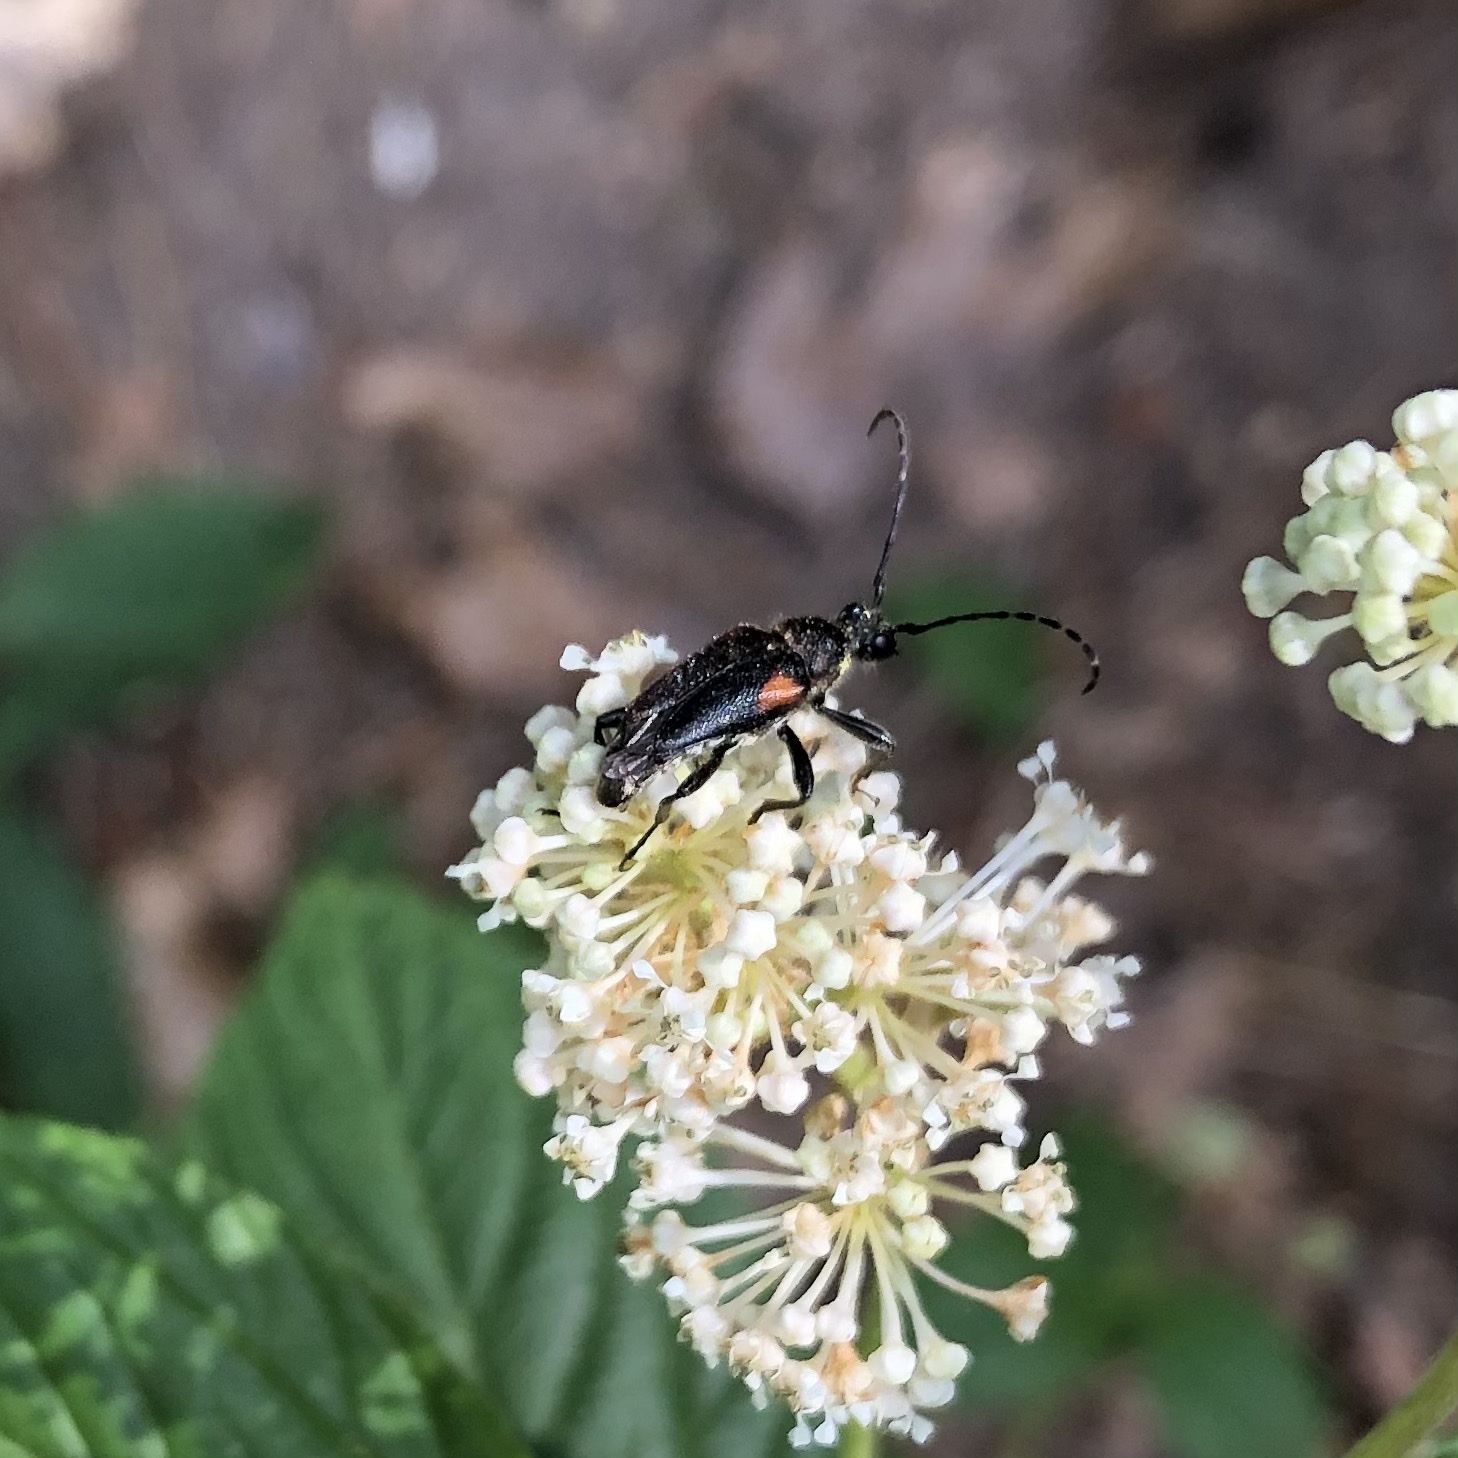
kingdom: Animalia
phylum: Arthropoda
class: Insecta
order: Coleoptera
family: Cerambycidae
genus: Brachyleptura
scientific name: Brachyleptura vagans
